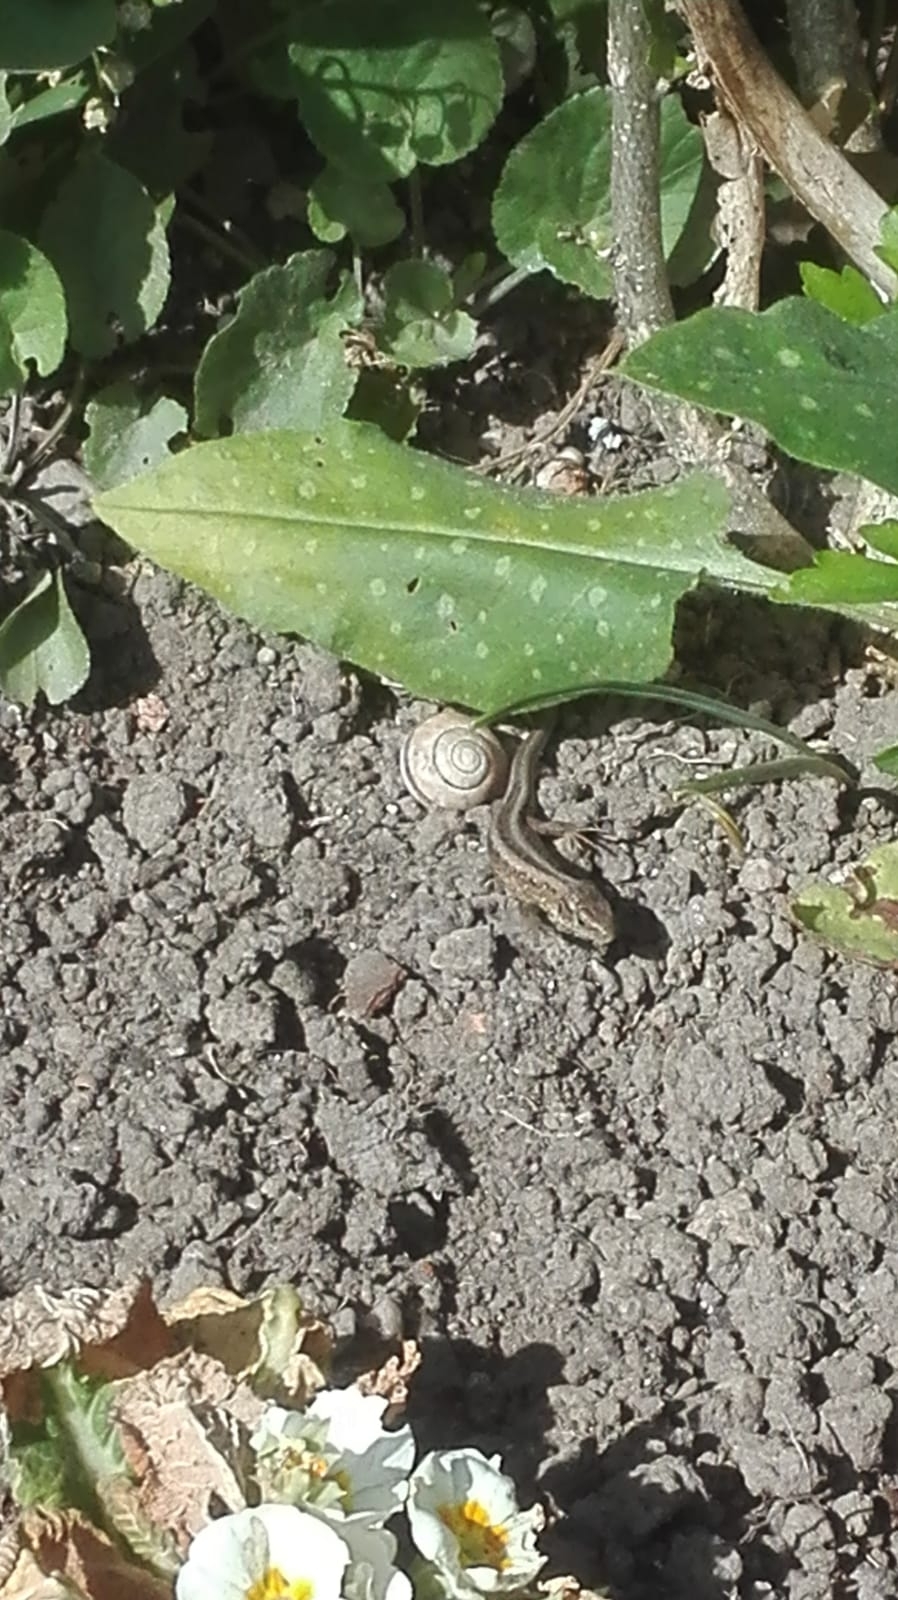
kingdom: Animalia
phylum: Chordata
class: Squamata
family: Lacertidae
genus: Lacerta
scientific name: Lacerta agilis
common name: Sand lizard
